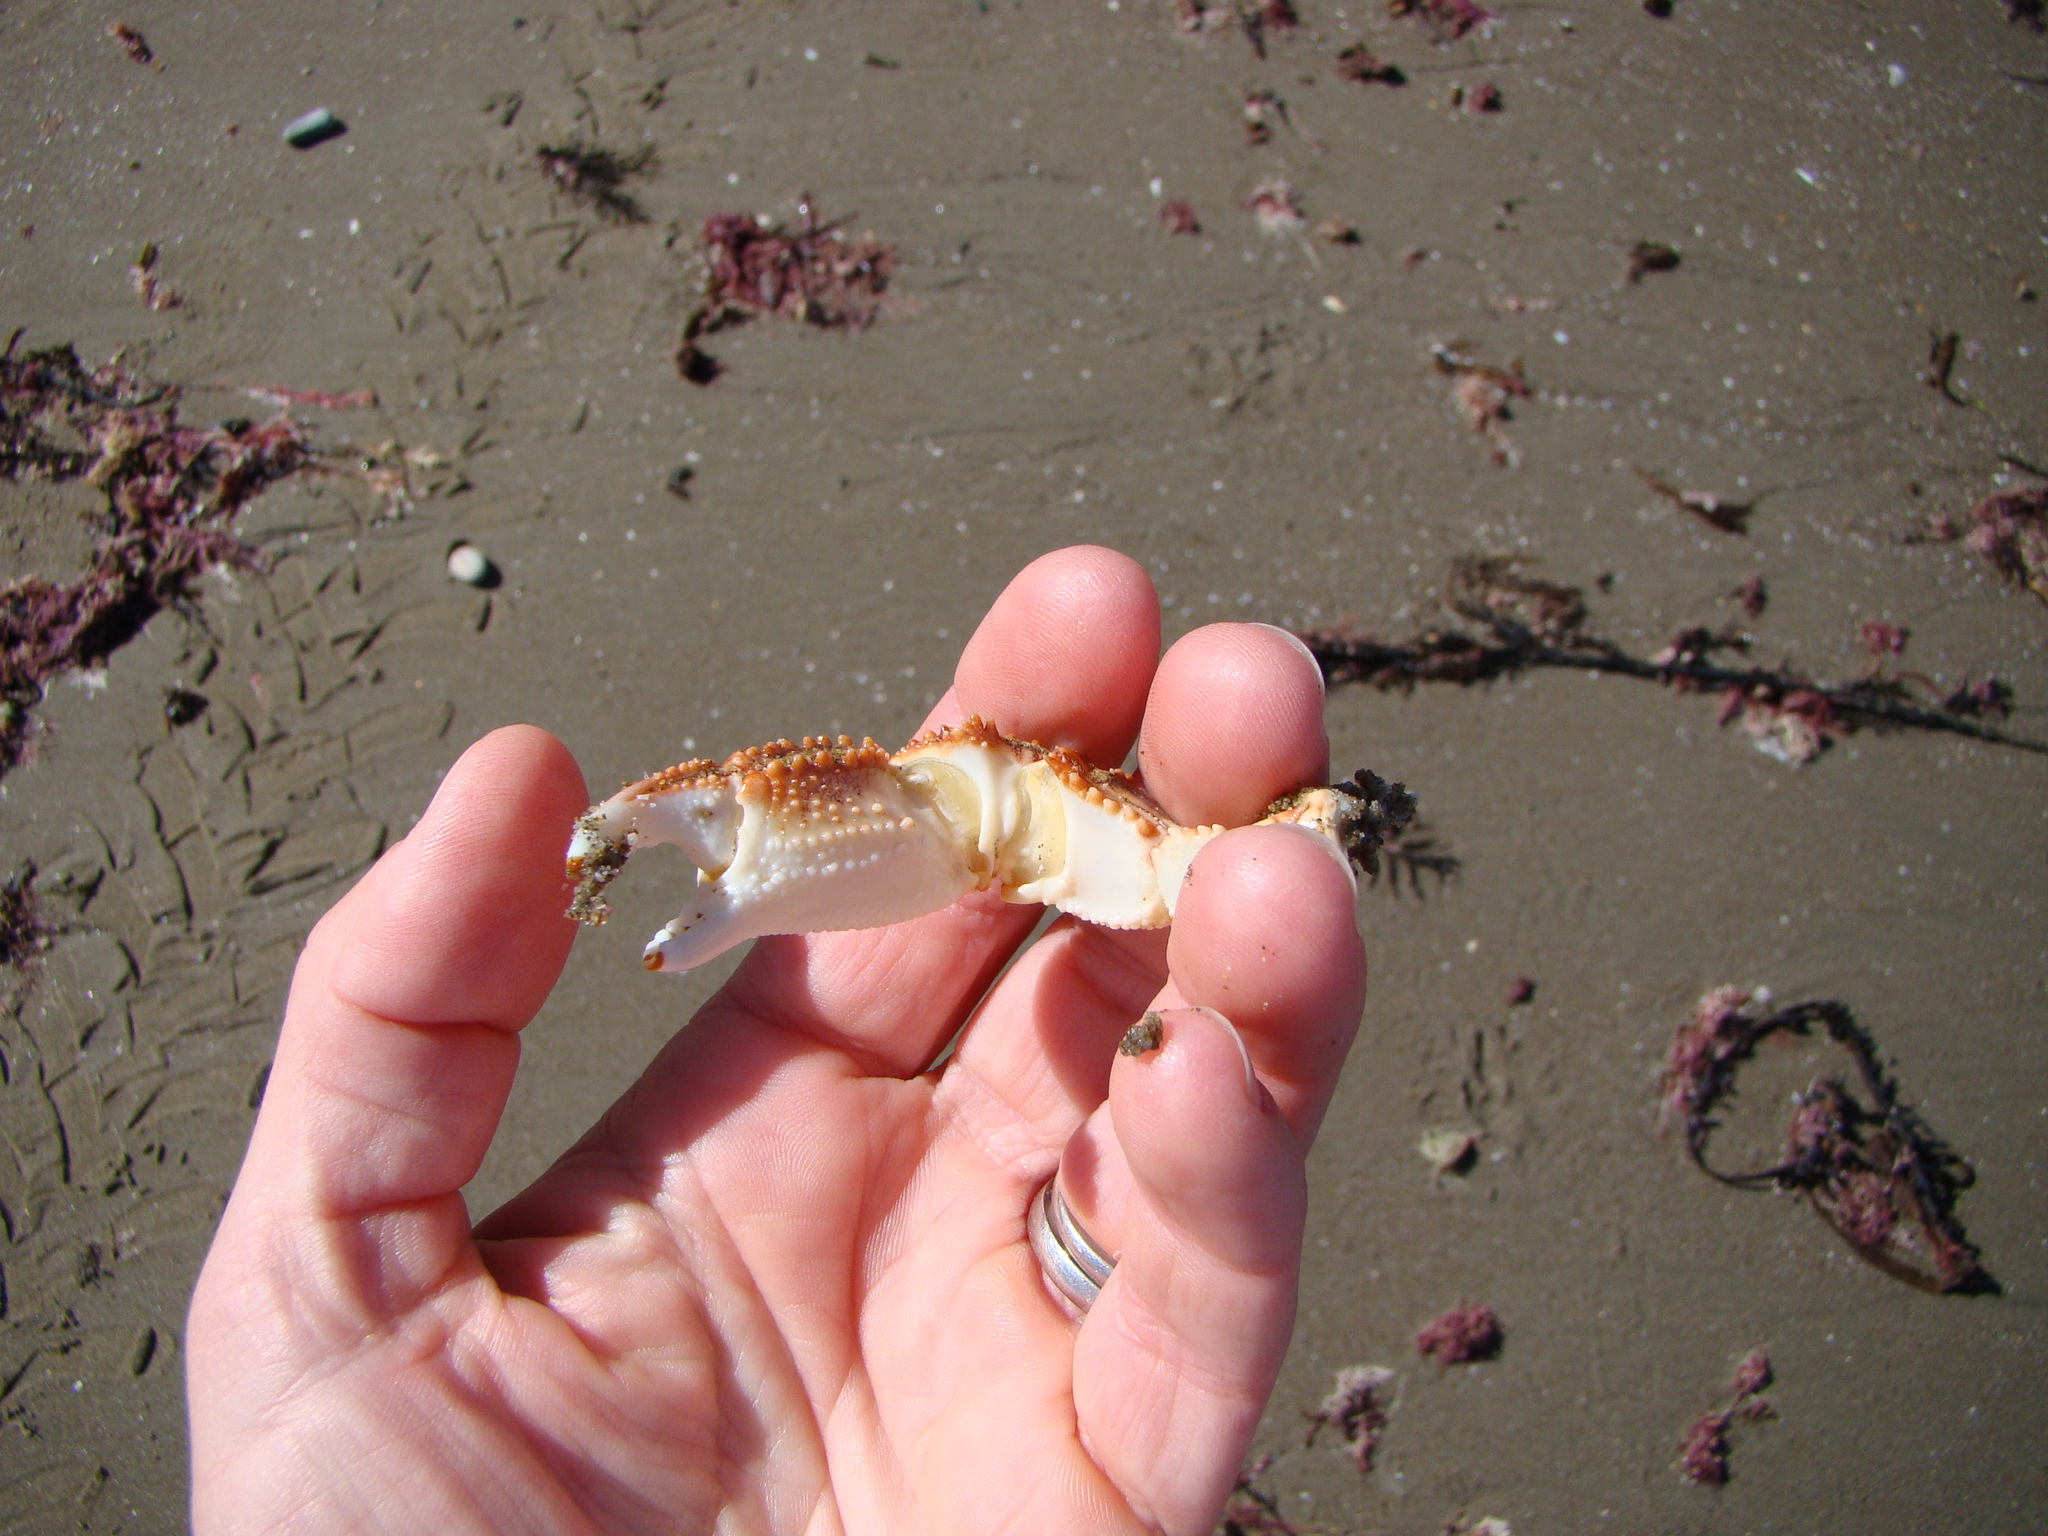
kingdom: Animalia
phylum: Arthropoda
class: Malacostraca
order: Decapoda
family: Plagusiidae
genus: Guinusia
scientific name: Guinusia chabrus
